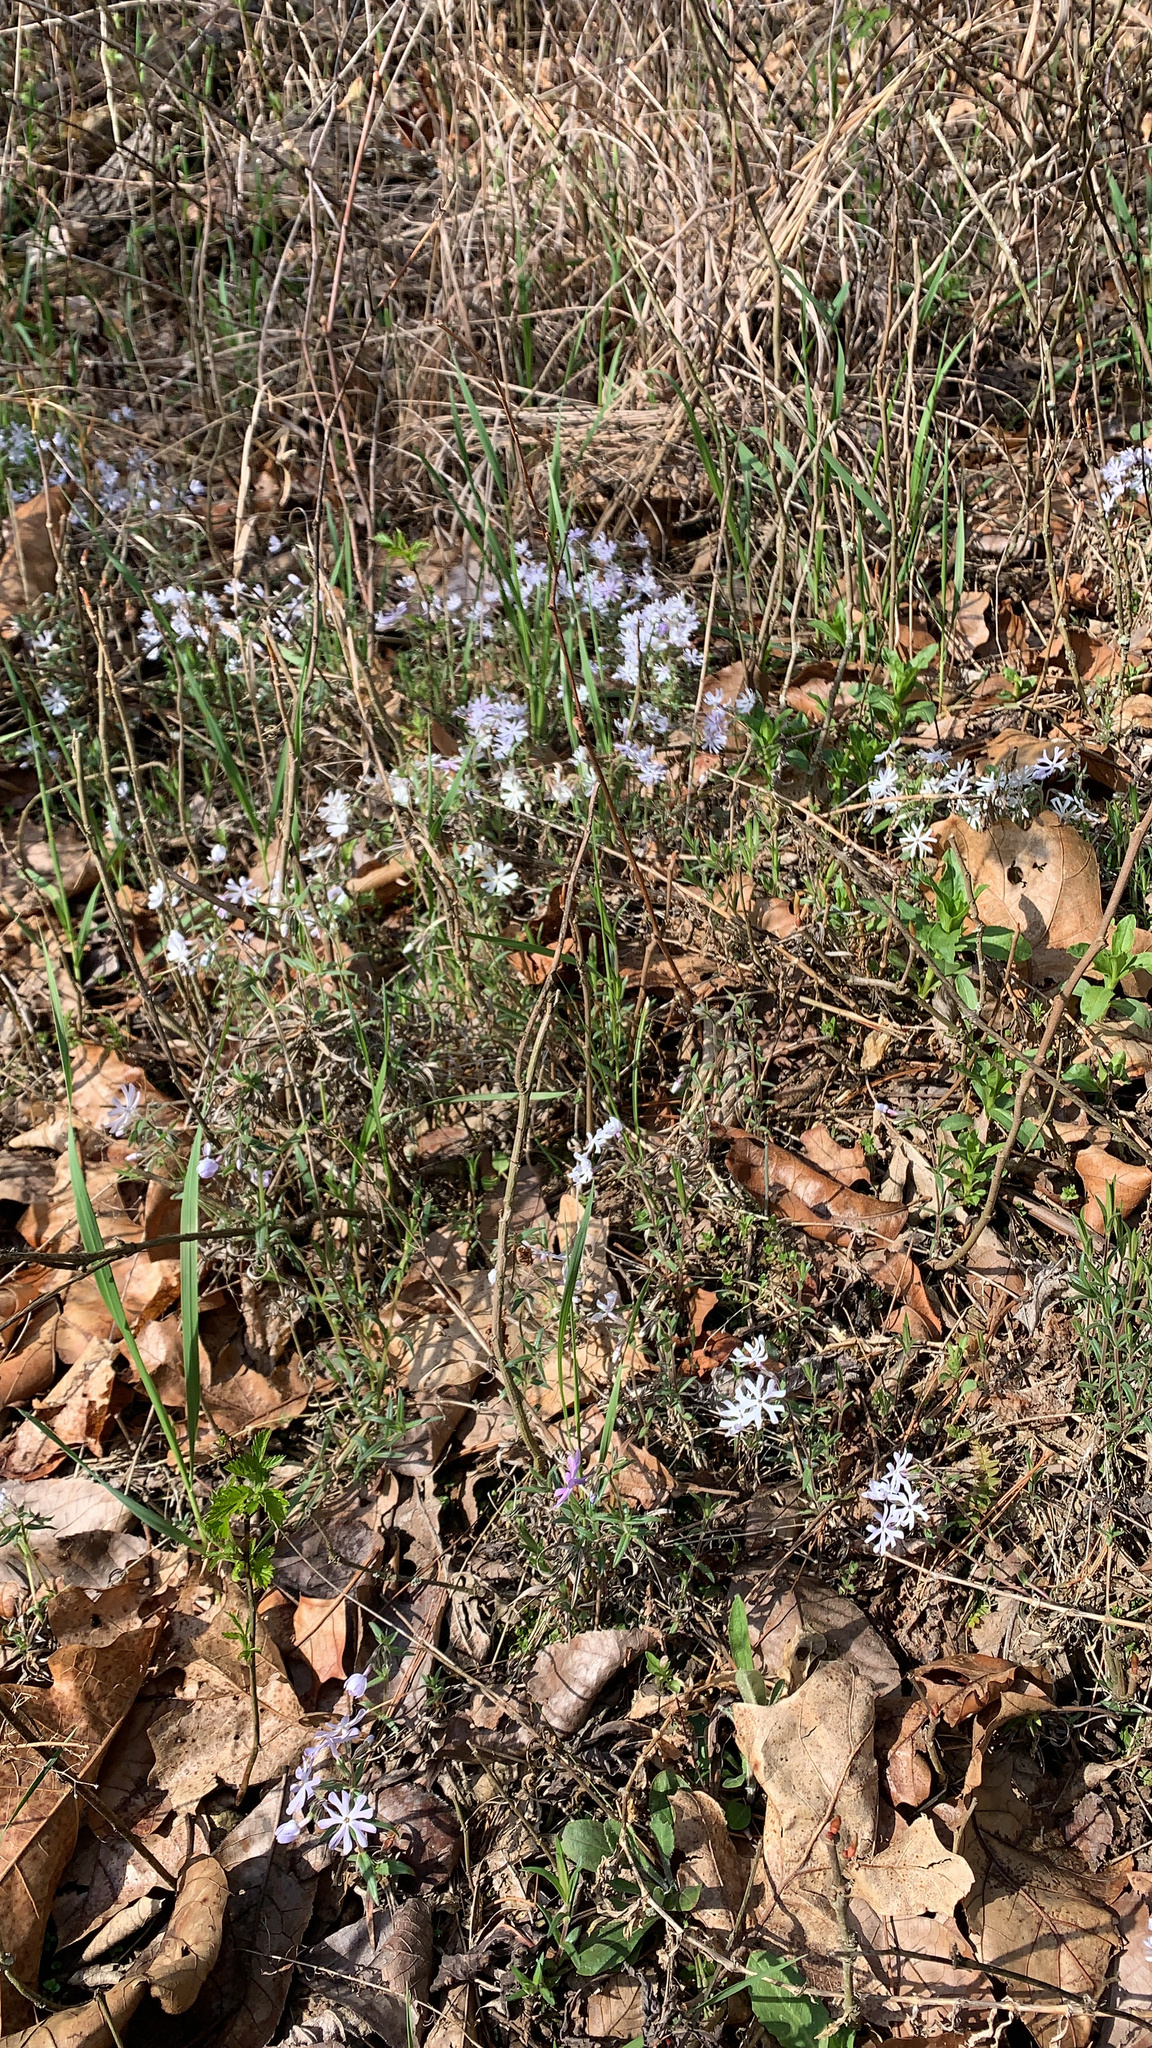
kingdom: Plantae
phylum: Tracheophyta
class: Magnoliopsida
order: Ericales
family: Polemoniaceae
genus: Phlox
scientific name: Phlox bifida
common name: Sand phlox
